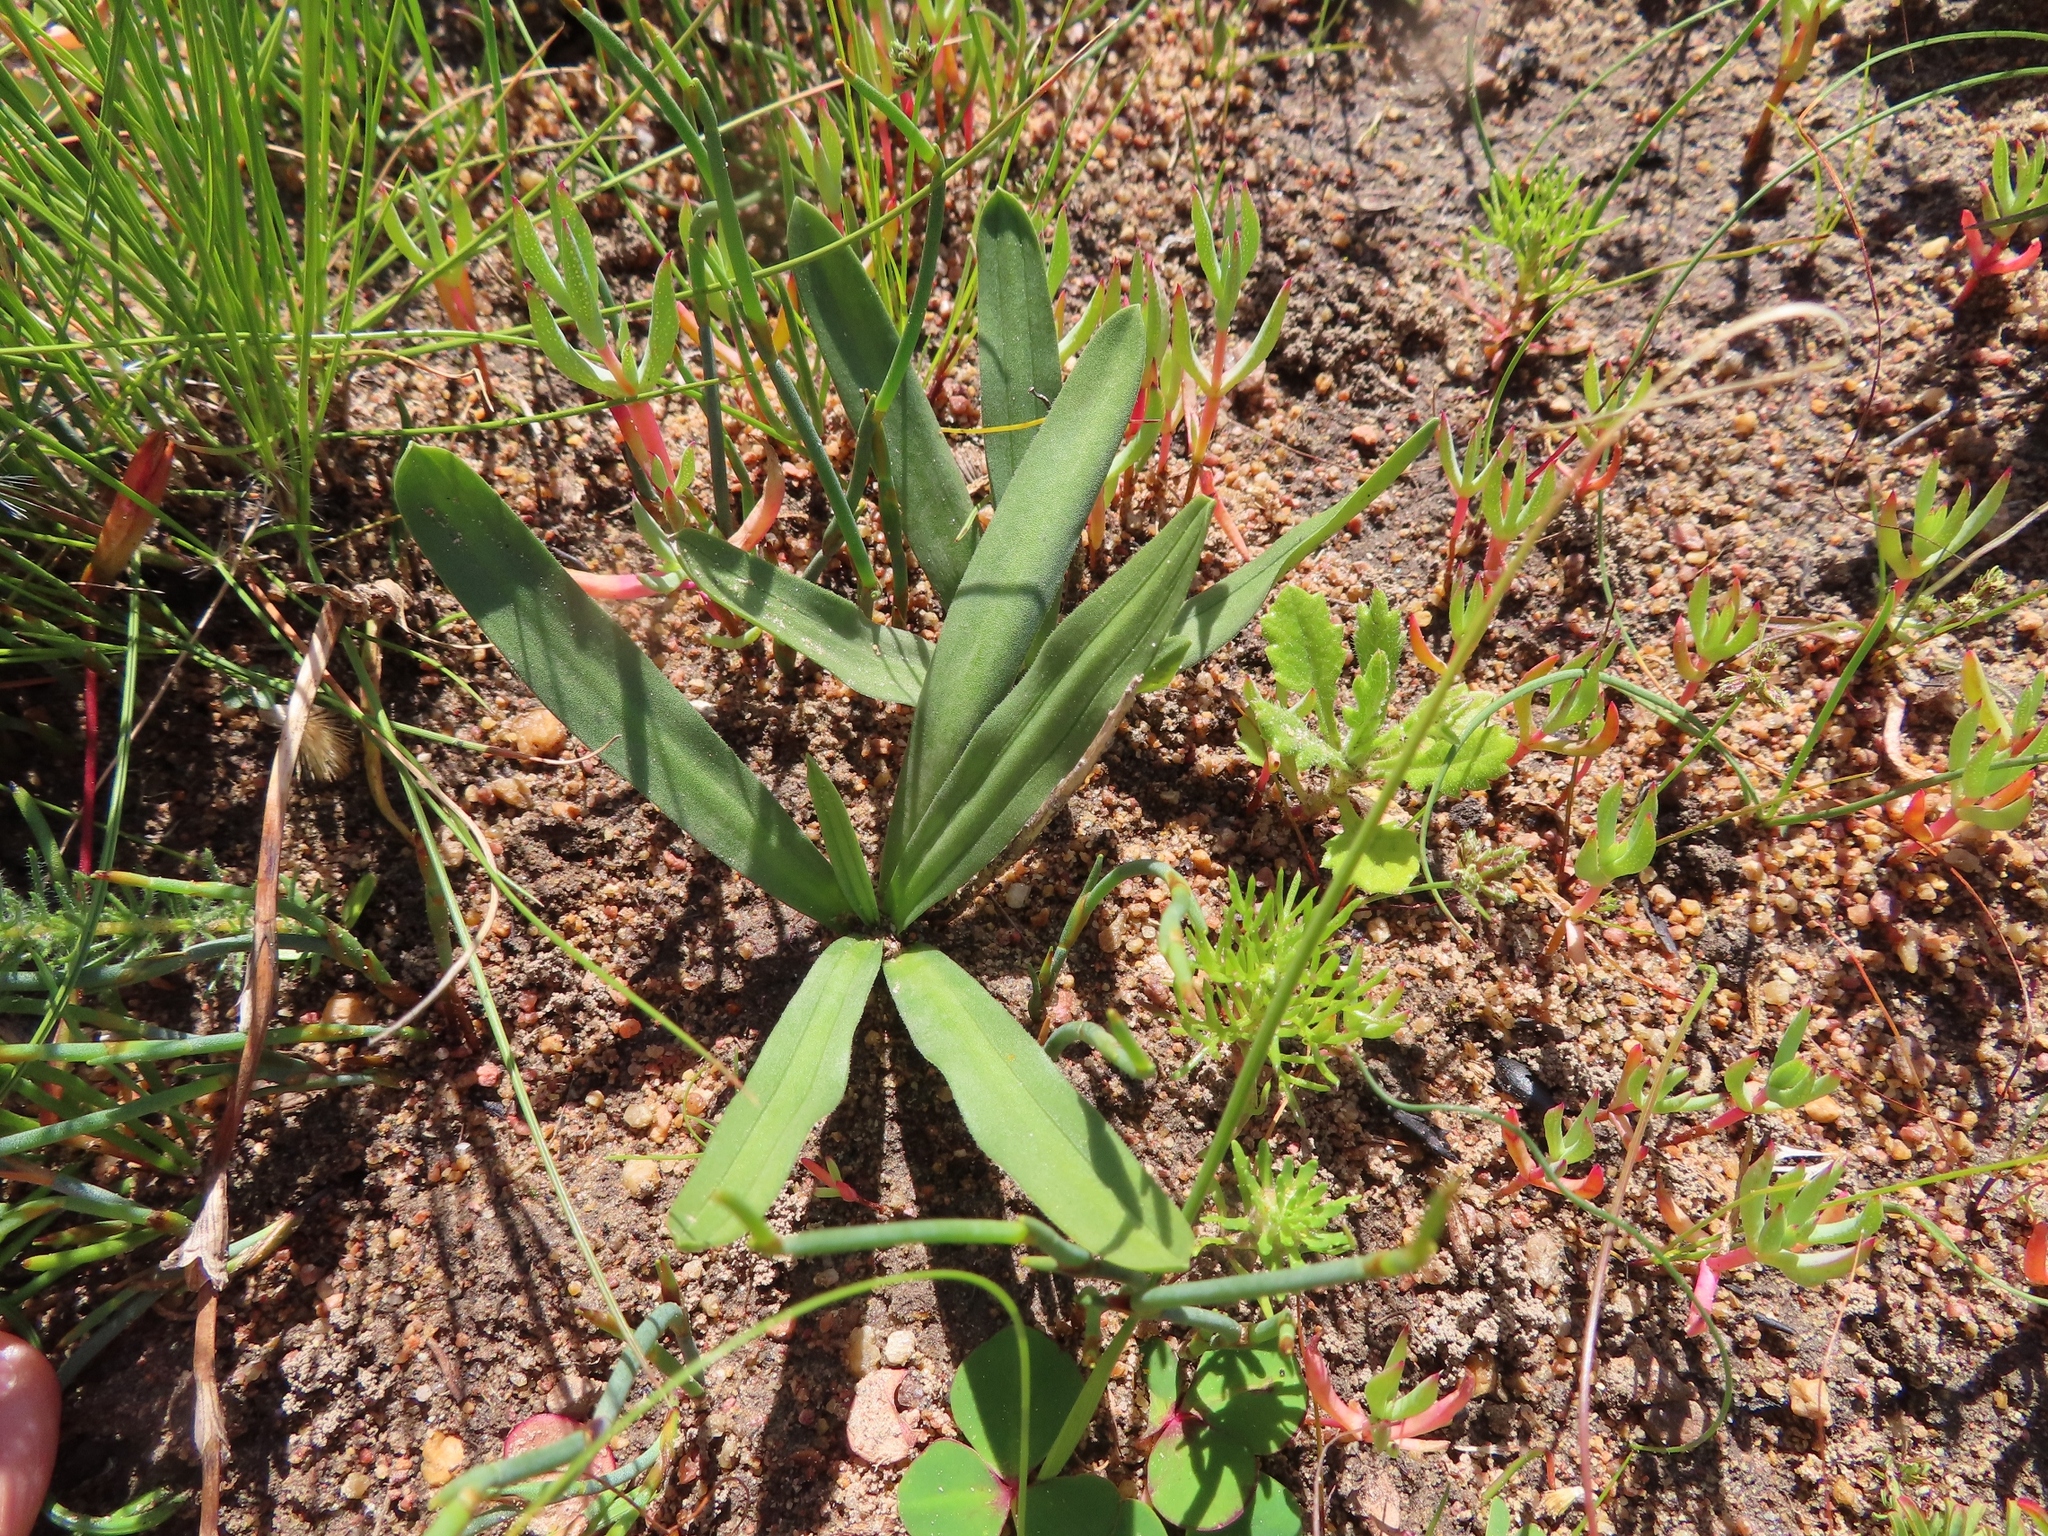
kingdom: Plantae
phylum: Tracheophyta
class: Liliopsida
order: Asparagales
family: Asparagaceae
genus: Drimia
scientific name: Drimia elata
